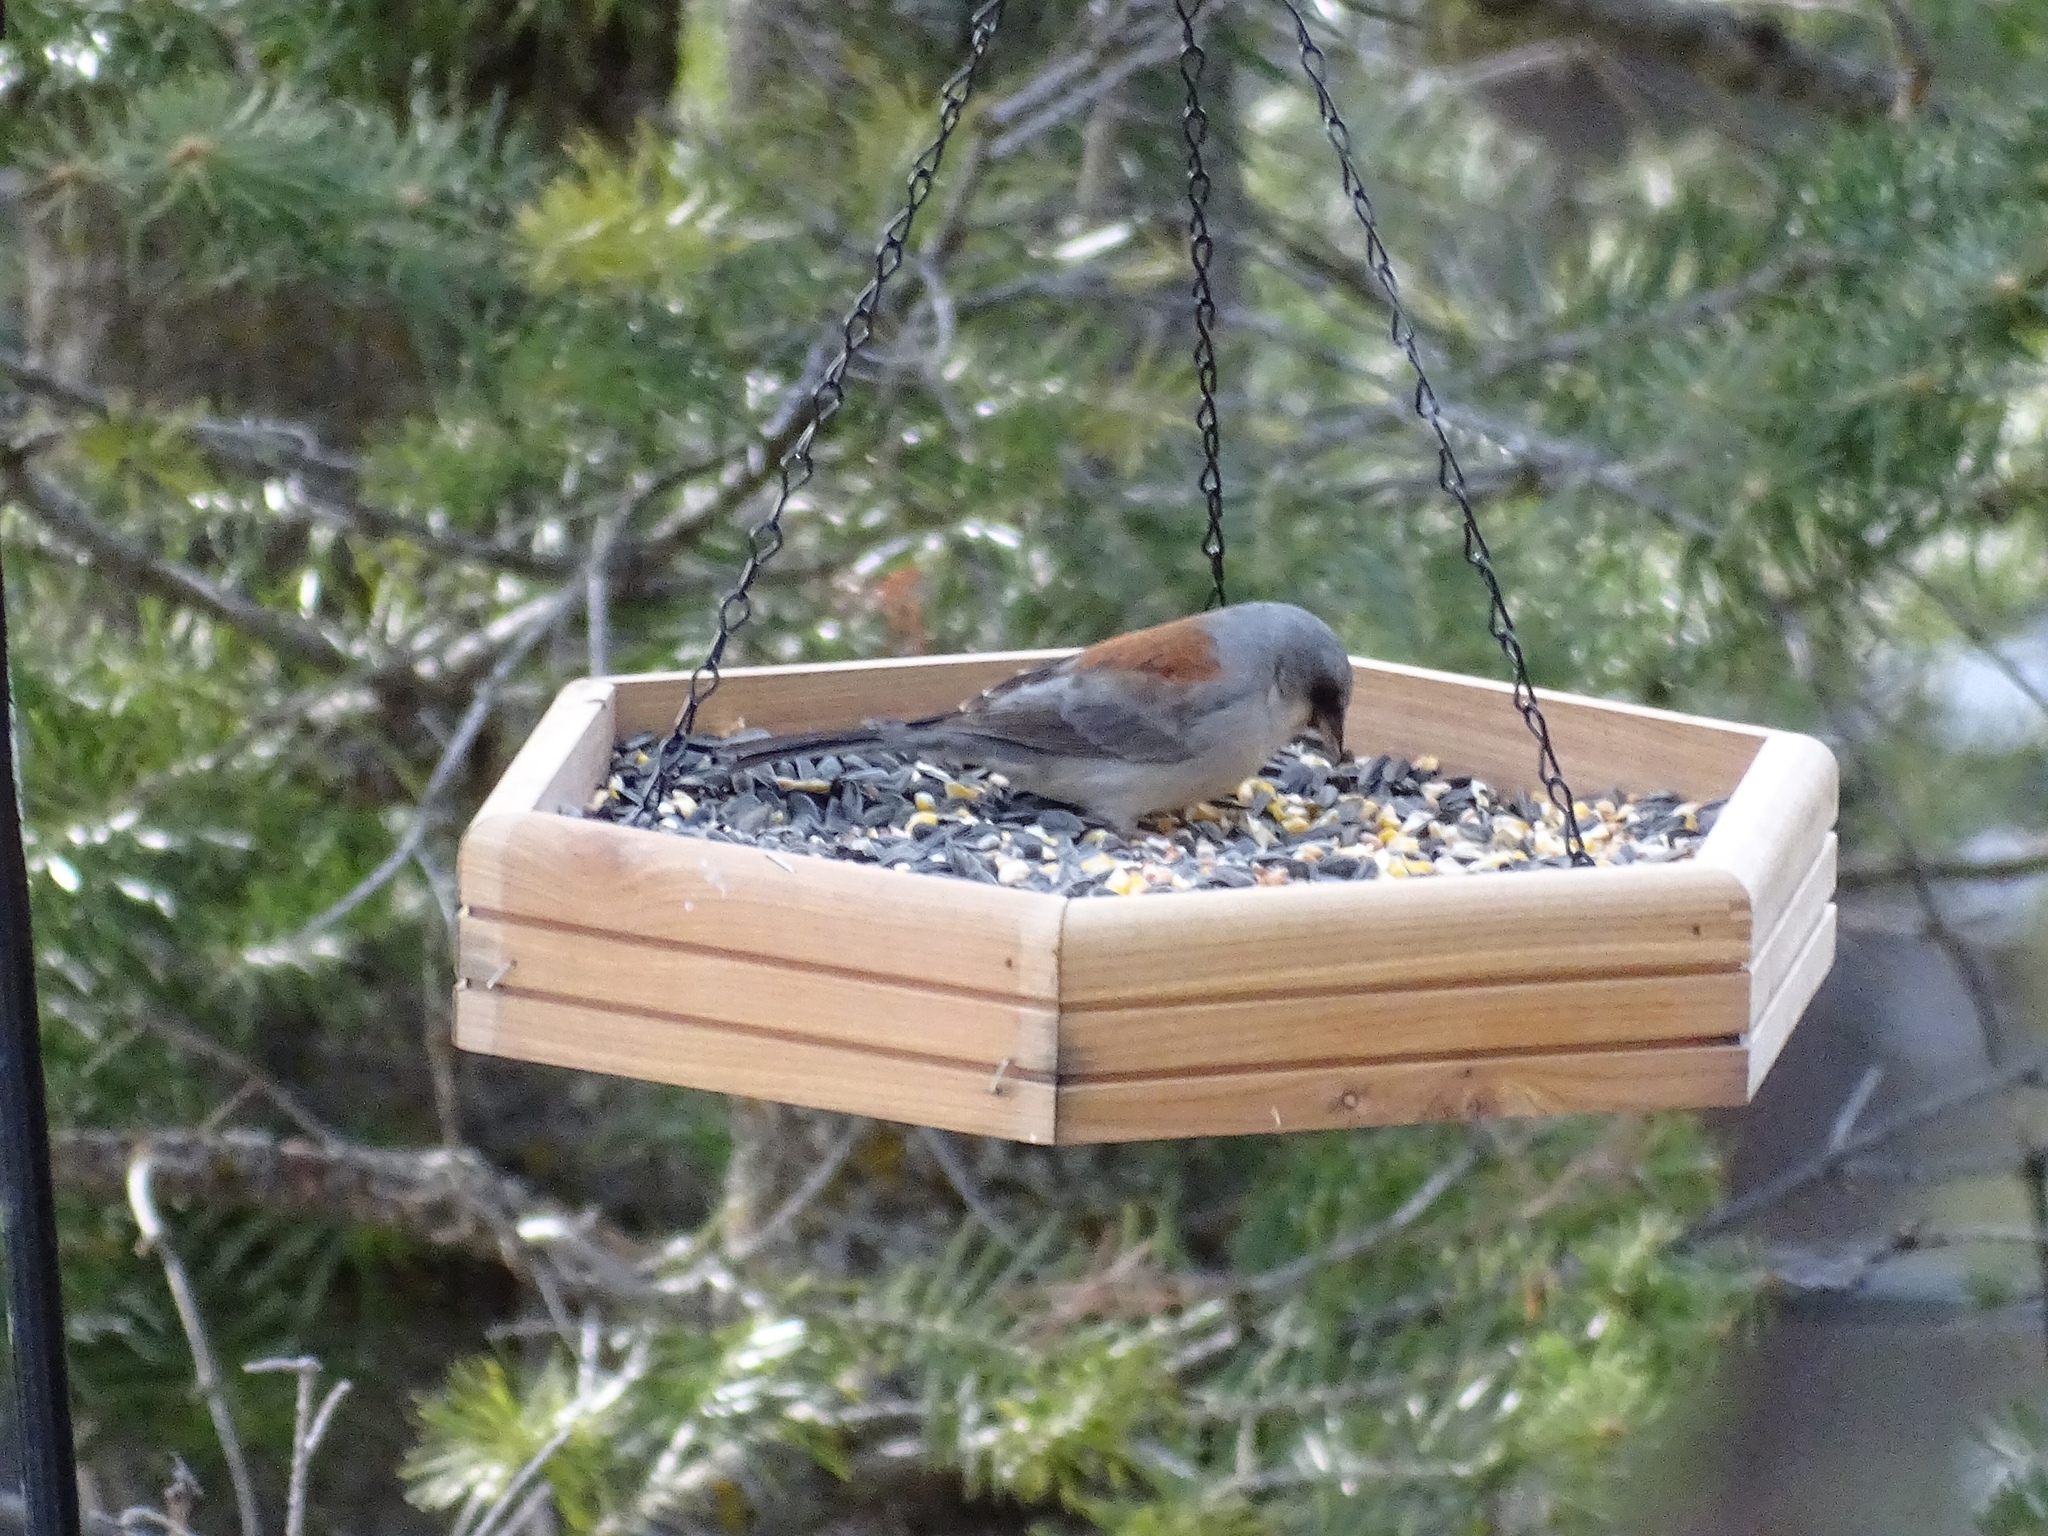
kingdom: Animalia
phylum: Chordata
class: Aves
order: Passeriformes
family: Passerellidae
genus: Junco
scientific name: Junco hyemalis
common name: Dark-eyed junco
